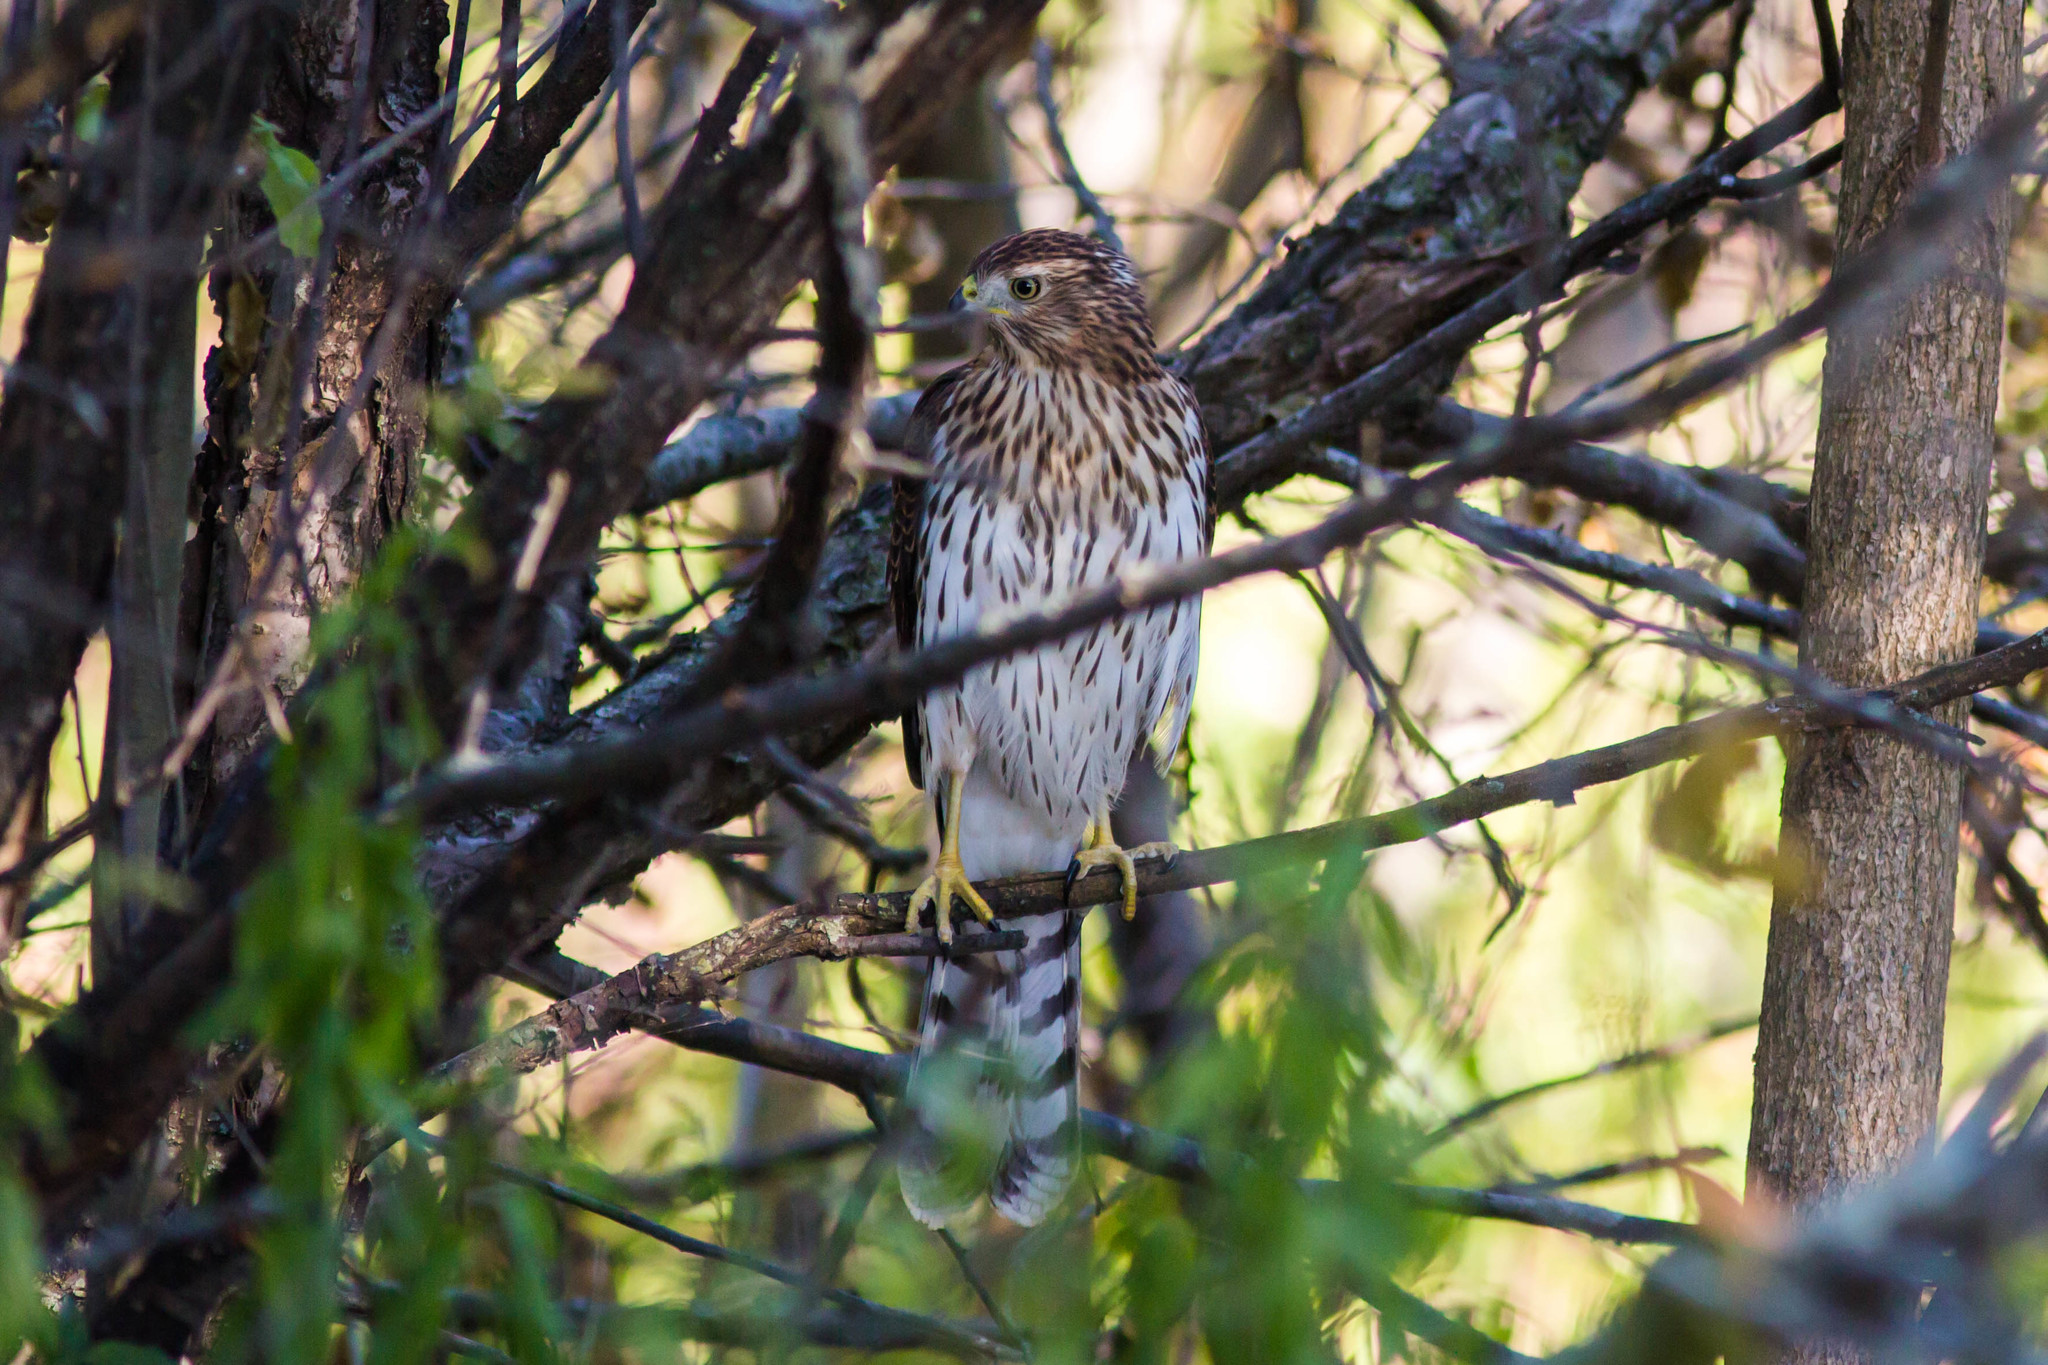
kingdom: Animalia
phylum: Chordata
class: Aves
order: Accipitriformes
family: Accipitridae
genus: Accipiter
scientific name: Accipiter cooperii
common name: Cooper's hawk
